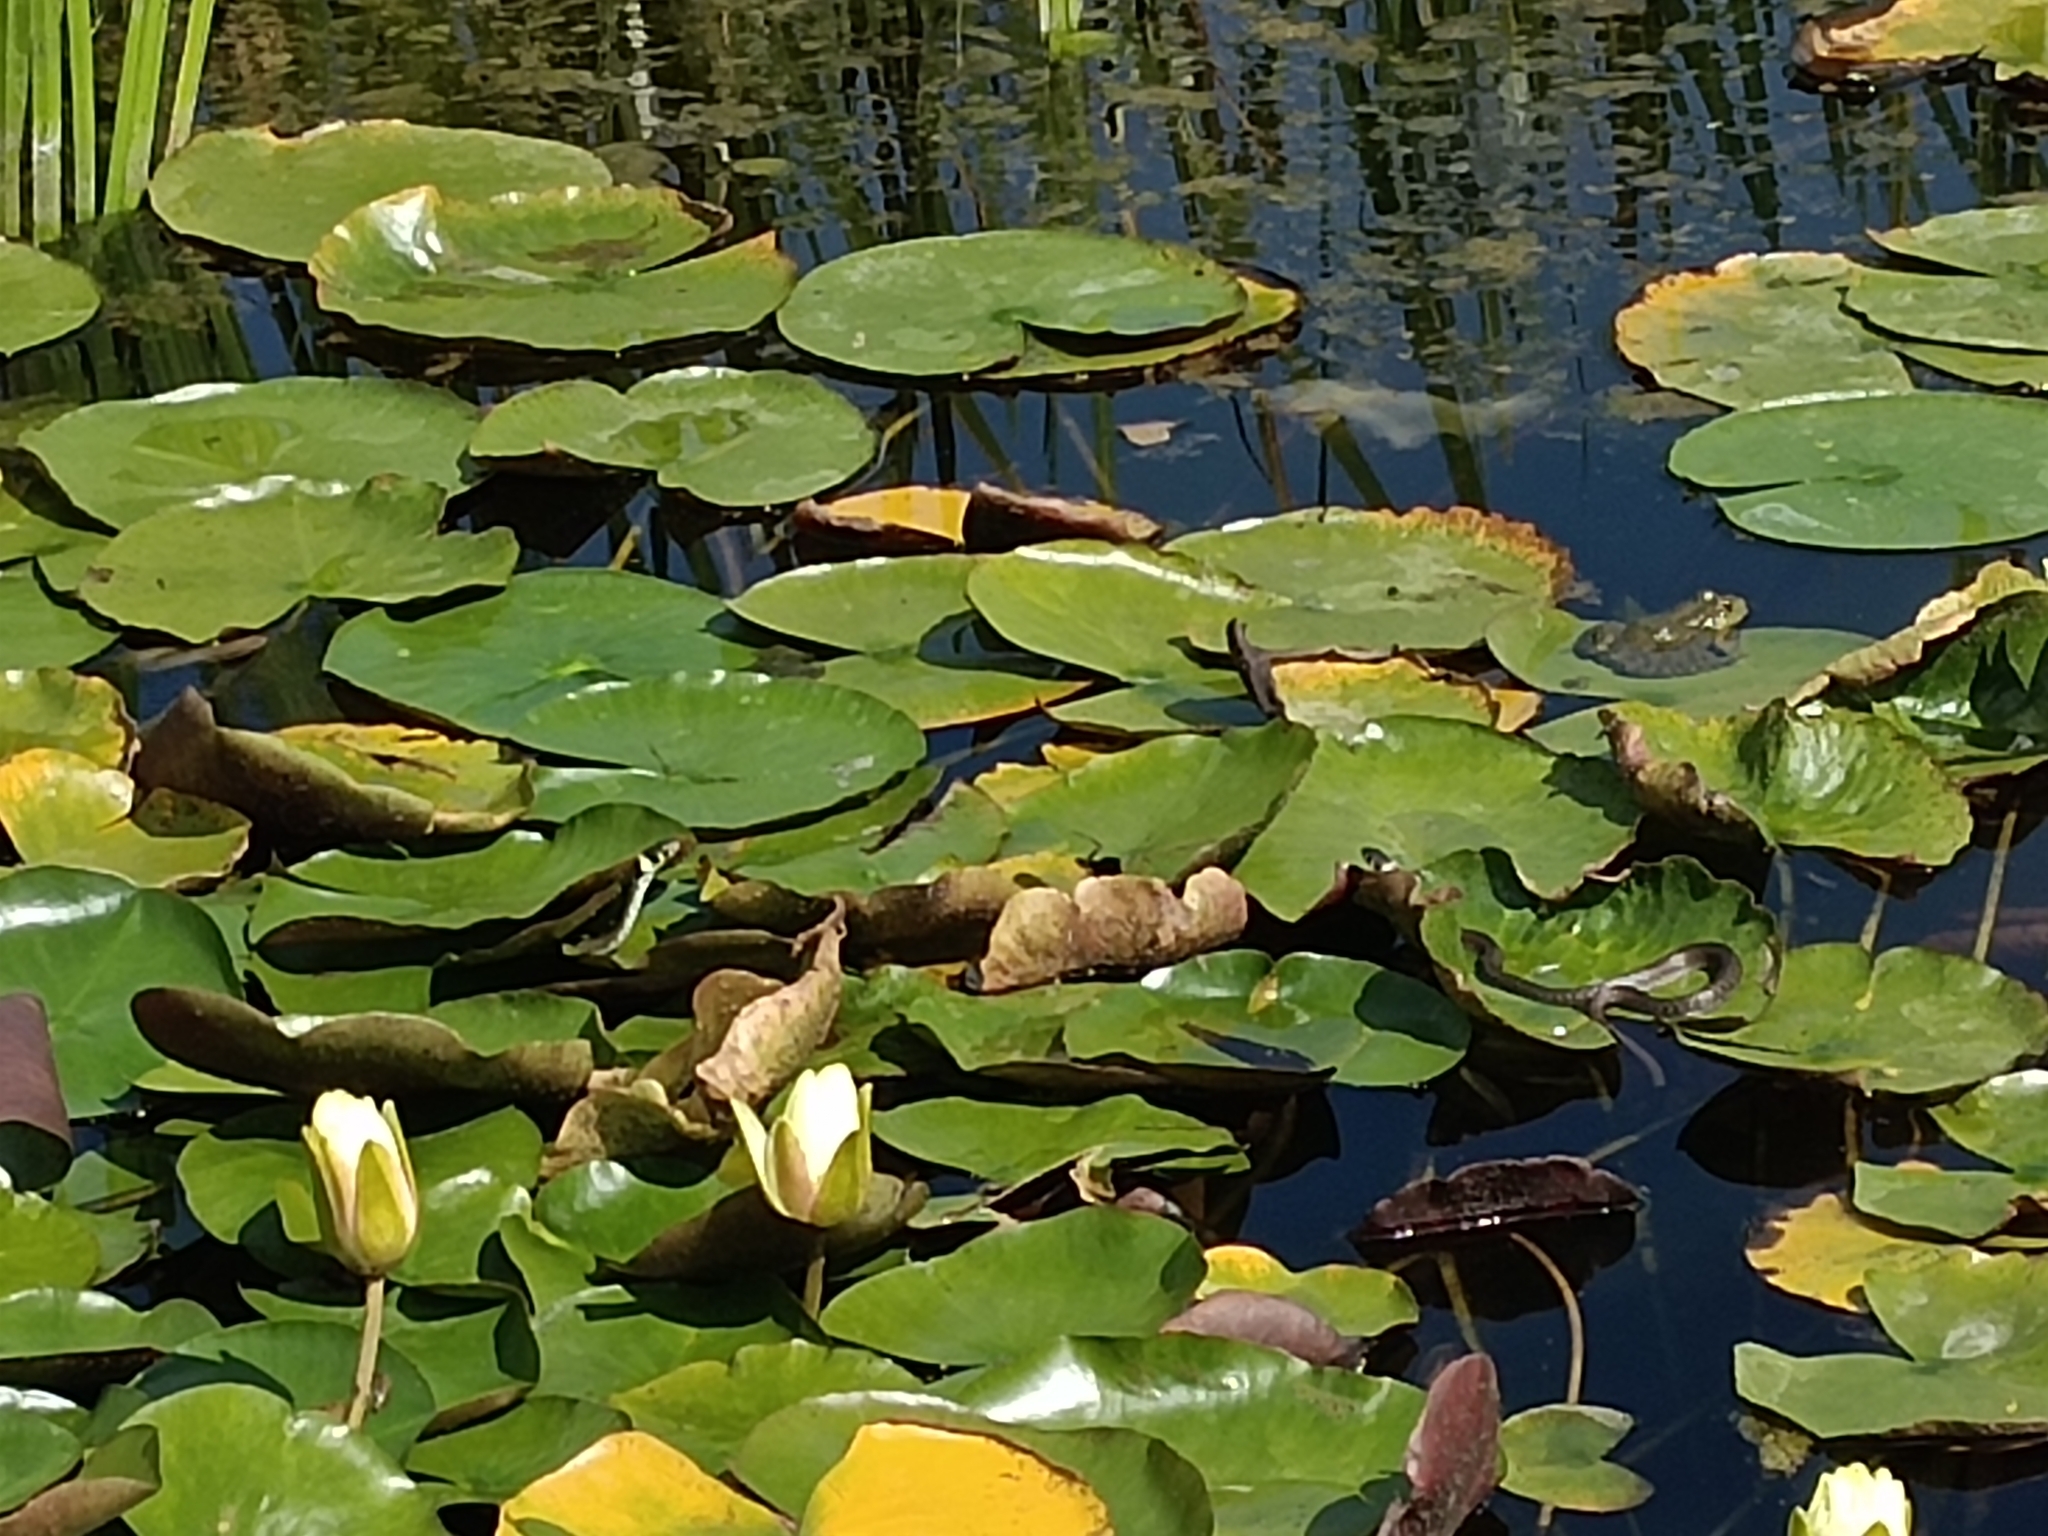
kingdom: Animalia
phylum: Chordata
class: Squamata
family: Colubridae
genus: Natrix
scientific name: Natrix natrix
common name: Grass snake
